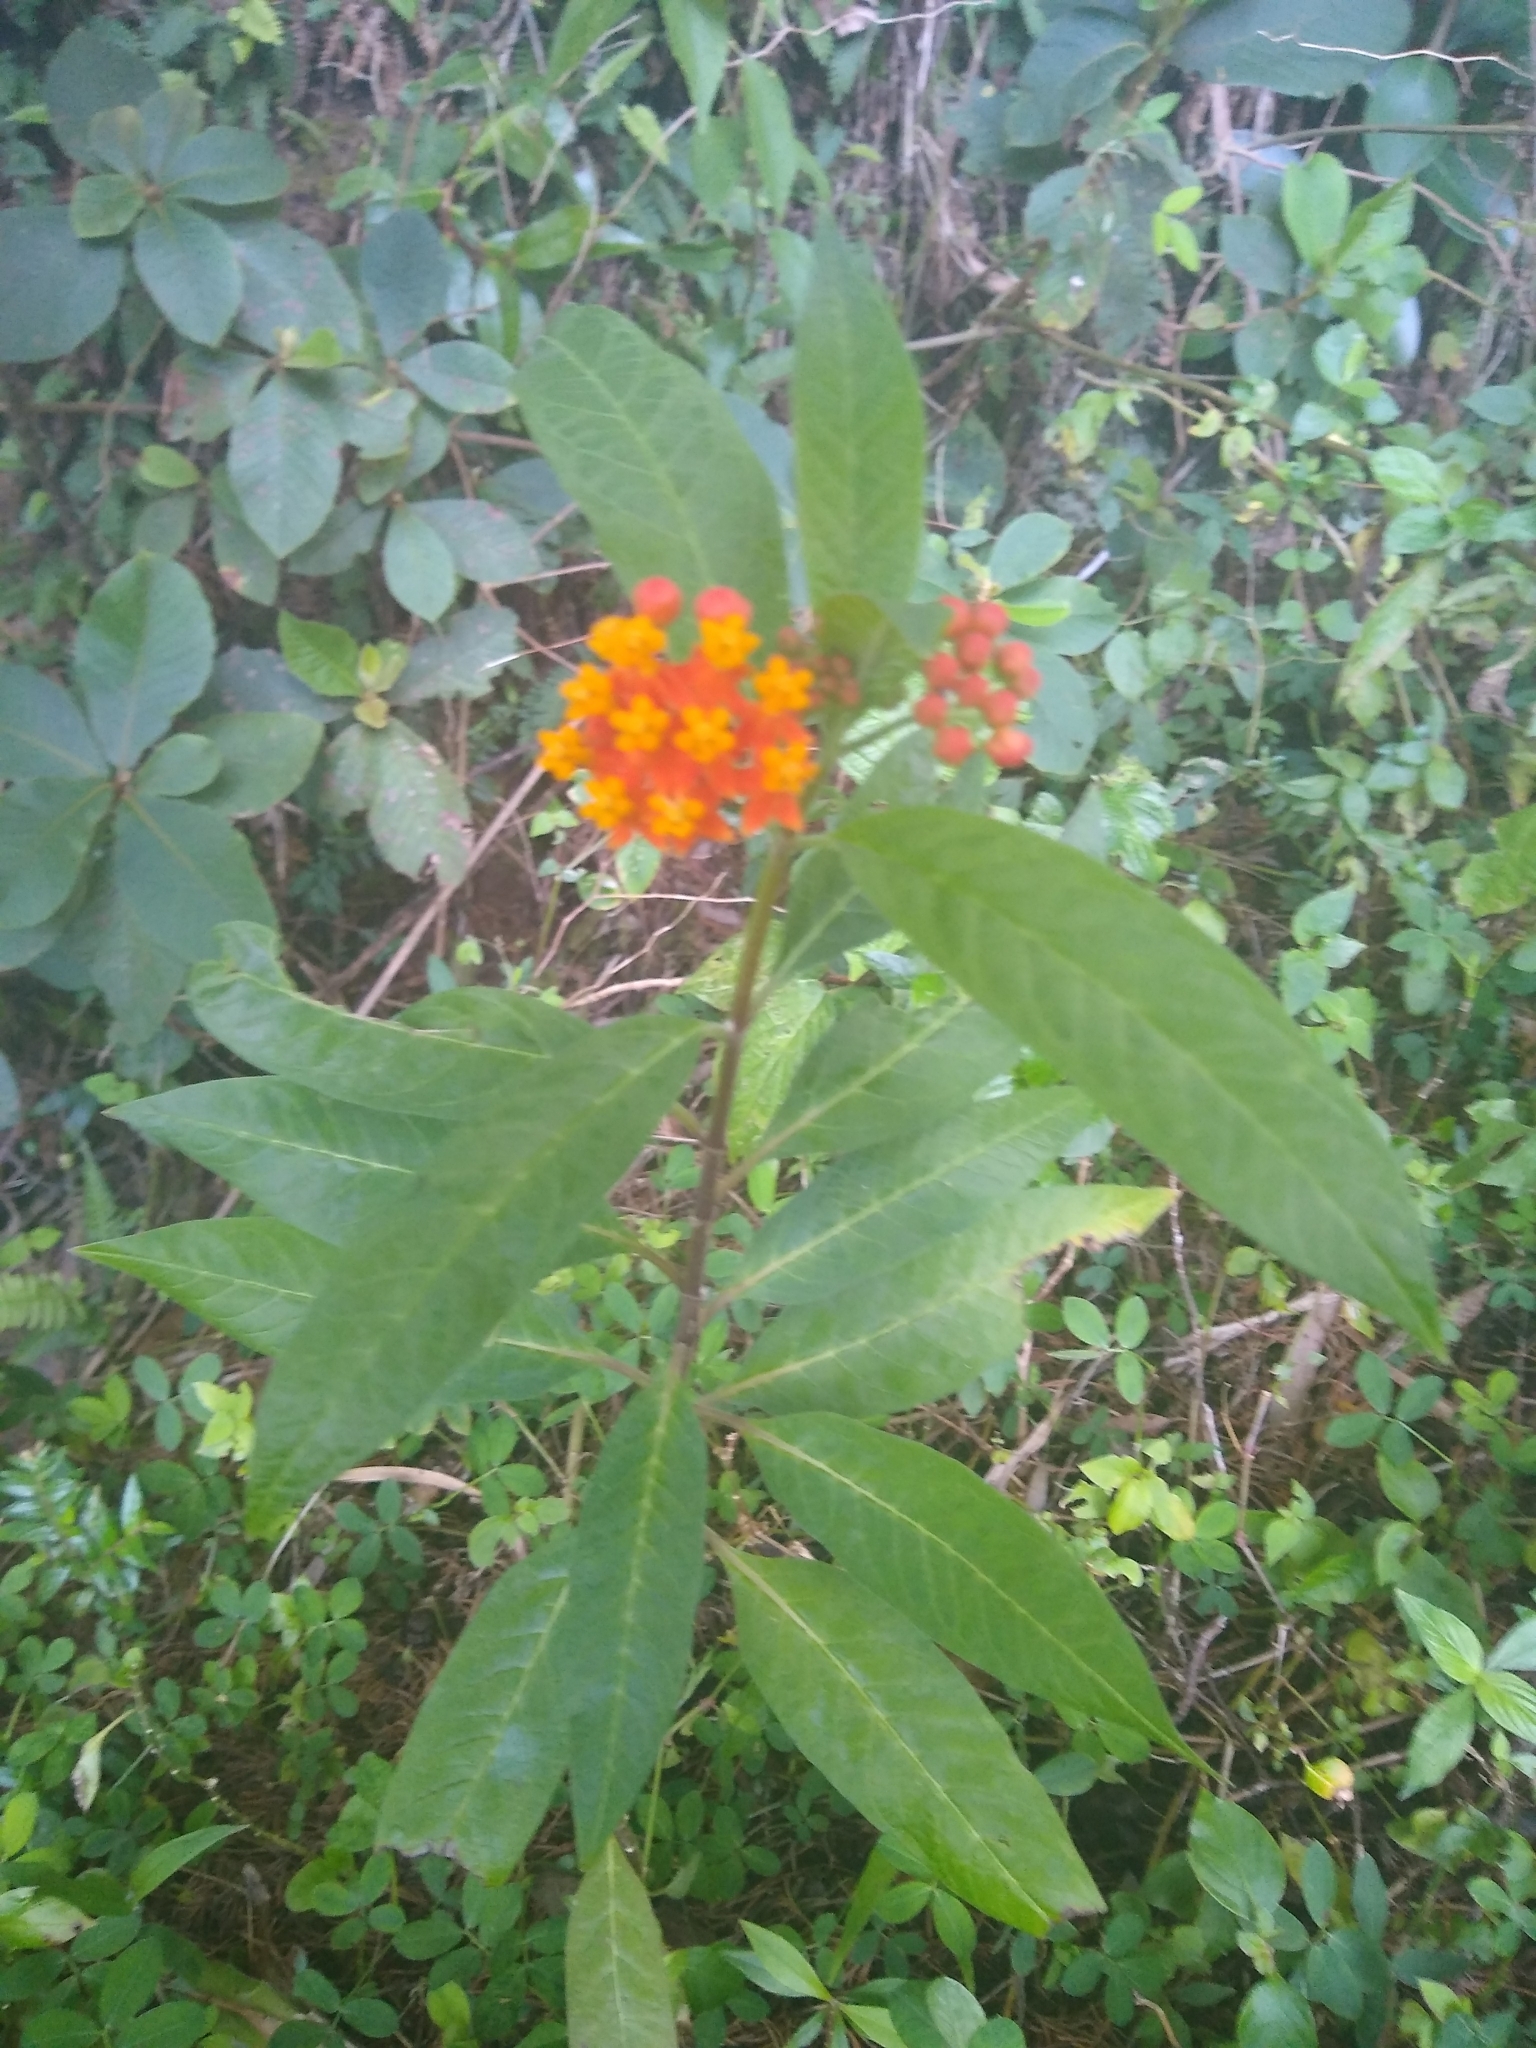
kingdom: Plantae
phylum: Tracheophyta
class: Magnoliopsida
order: Gentianales
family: Apocynaceae
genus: Asclepias
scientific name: Asclepias curassavica
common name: Bloodflower
